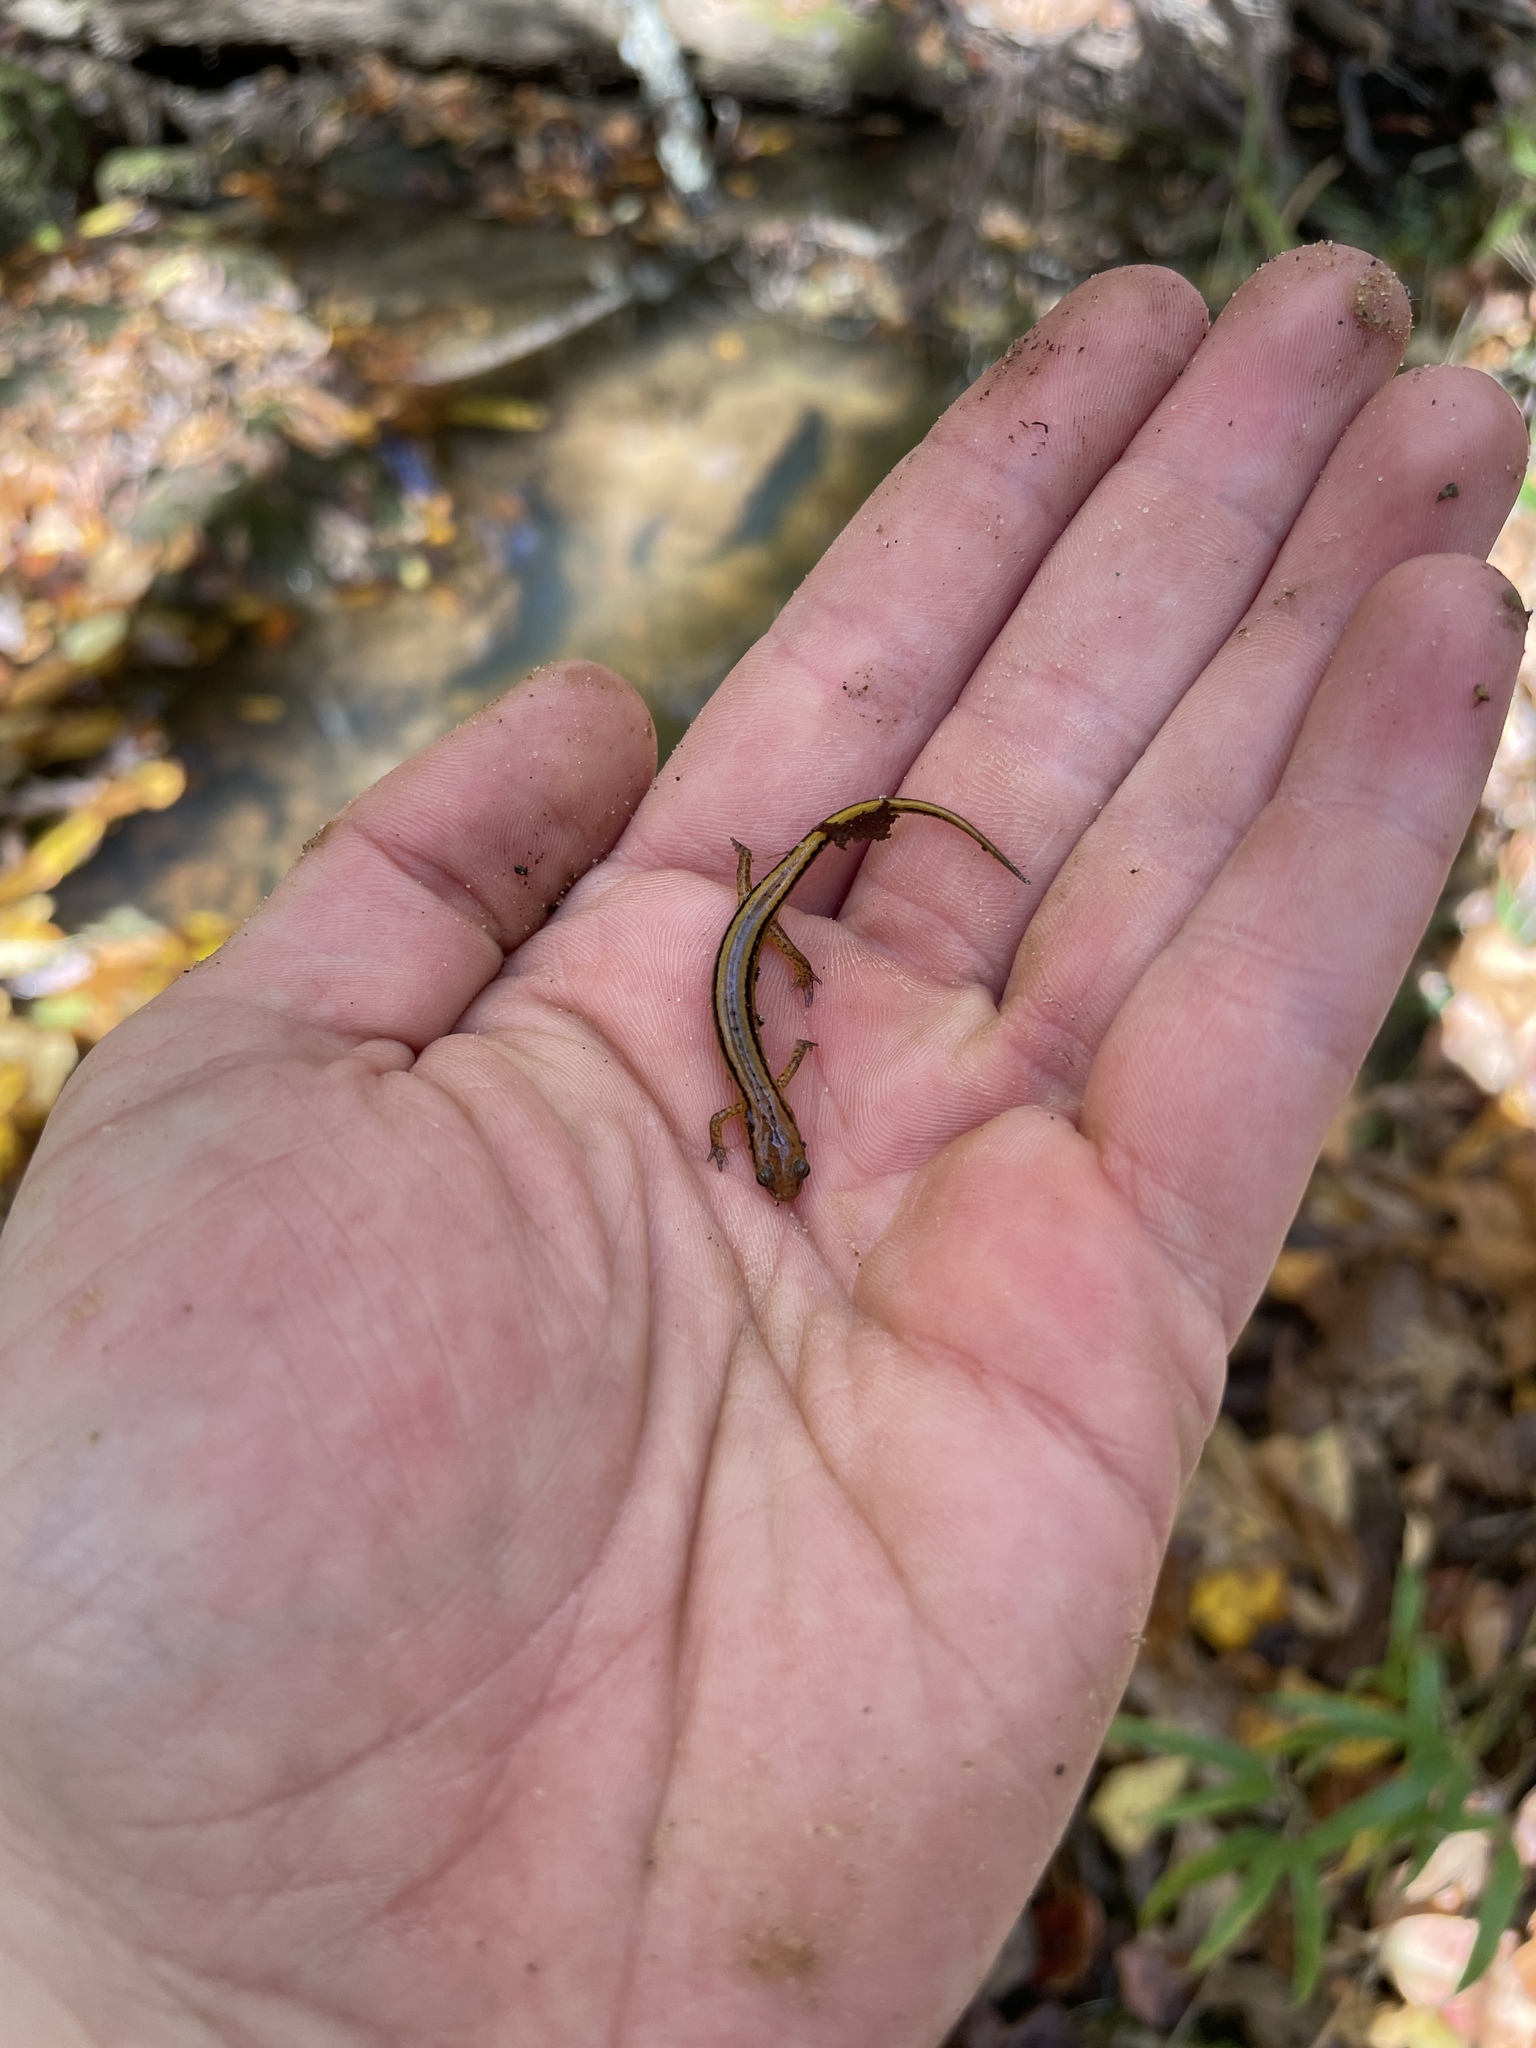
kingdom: Animalia
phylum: Chordata
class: Amphibia
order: Caudata
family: Plethodontidae
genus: Eurycea
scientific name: Eurycea cirrigera
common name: Southern two-lined salamander
